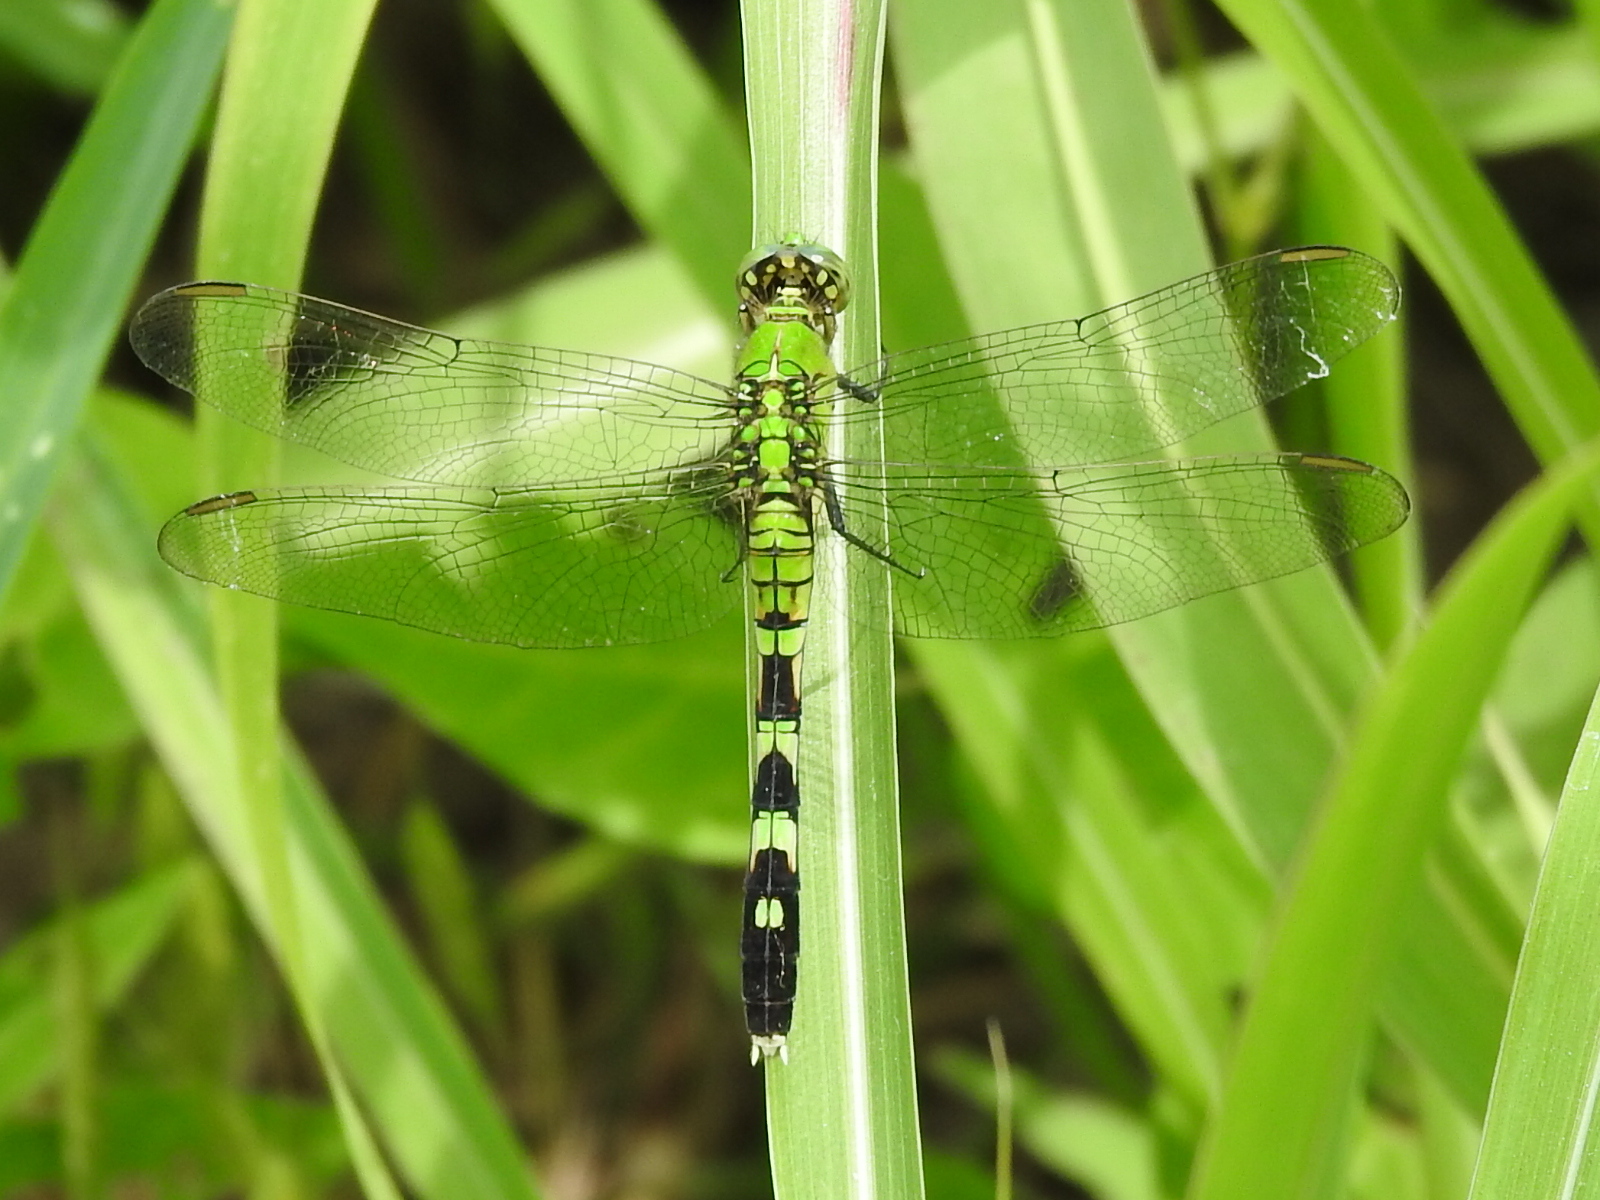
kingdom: Animalia
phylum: Arthropoda
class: Insecta
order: Odonata
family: Libellulidae
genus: Erythemis
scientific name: Erythemis simplicicollis
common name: Eastern pondhawk
